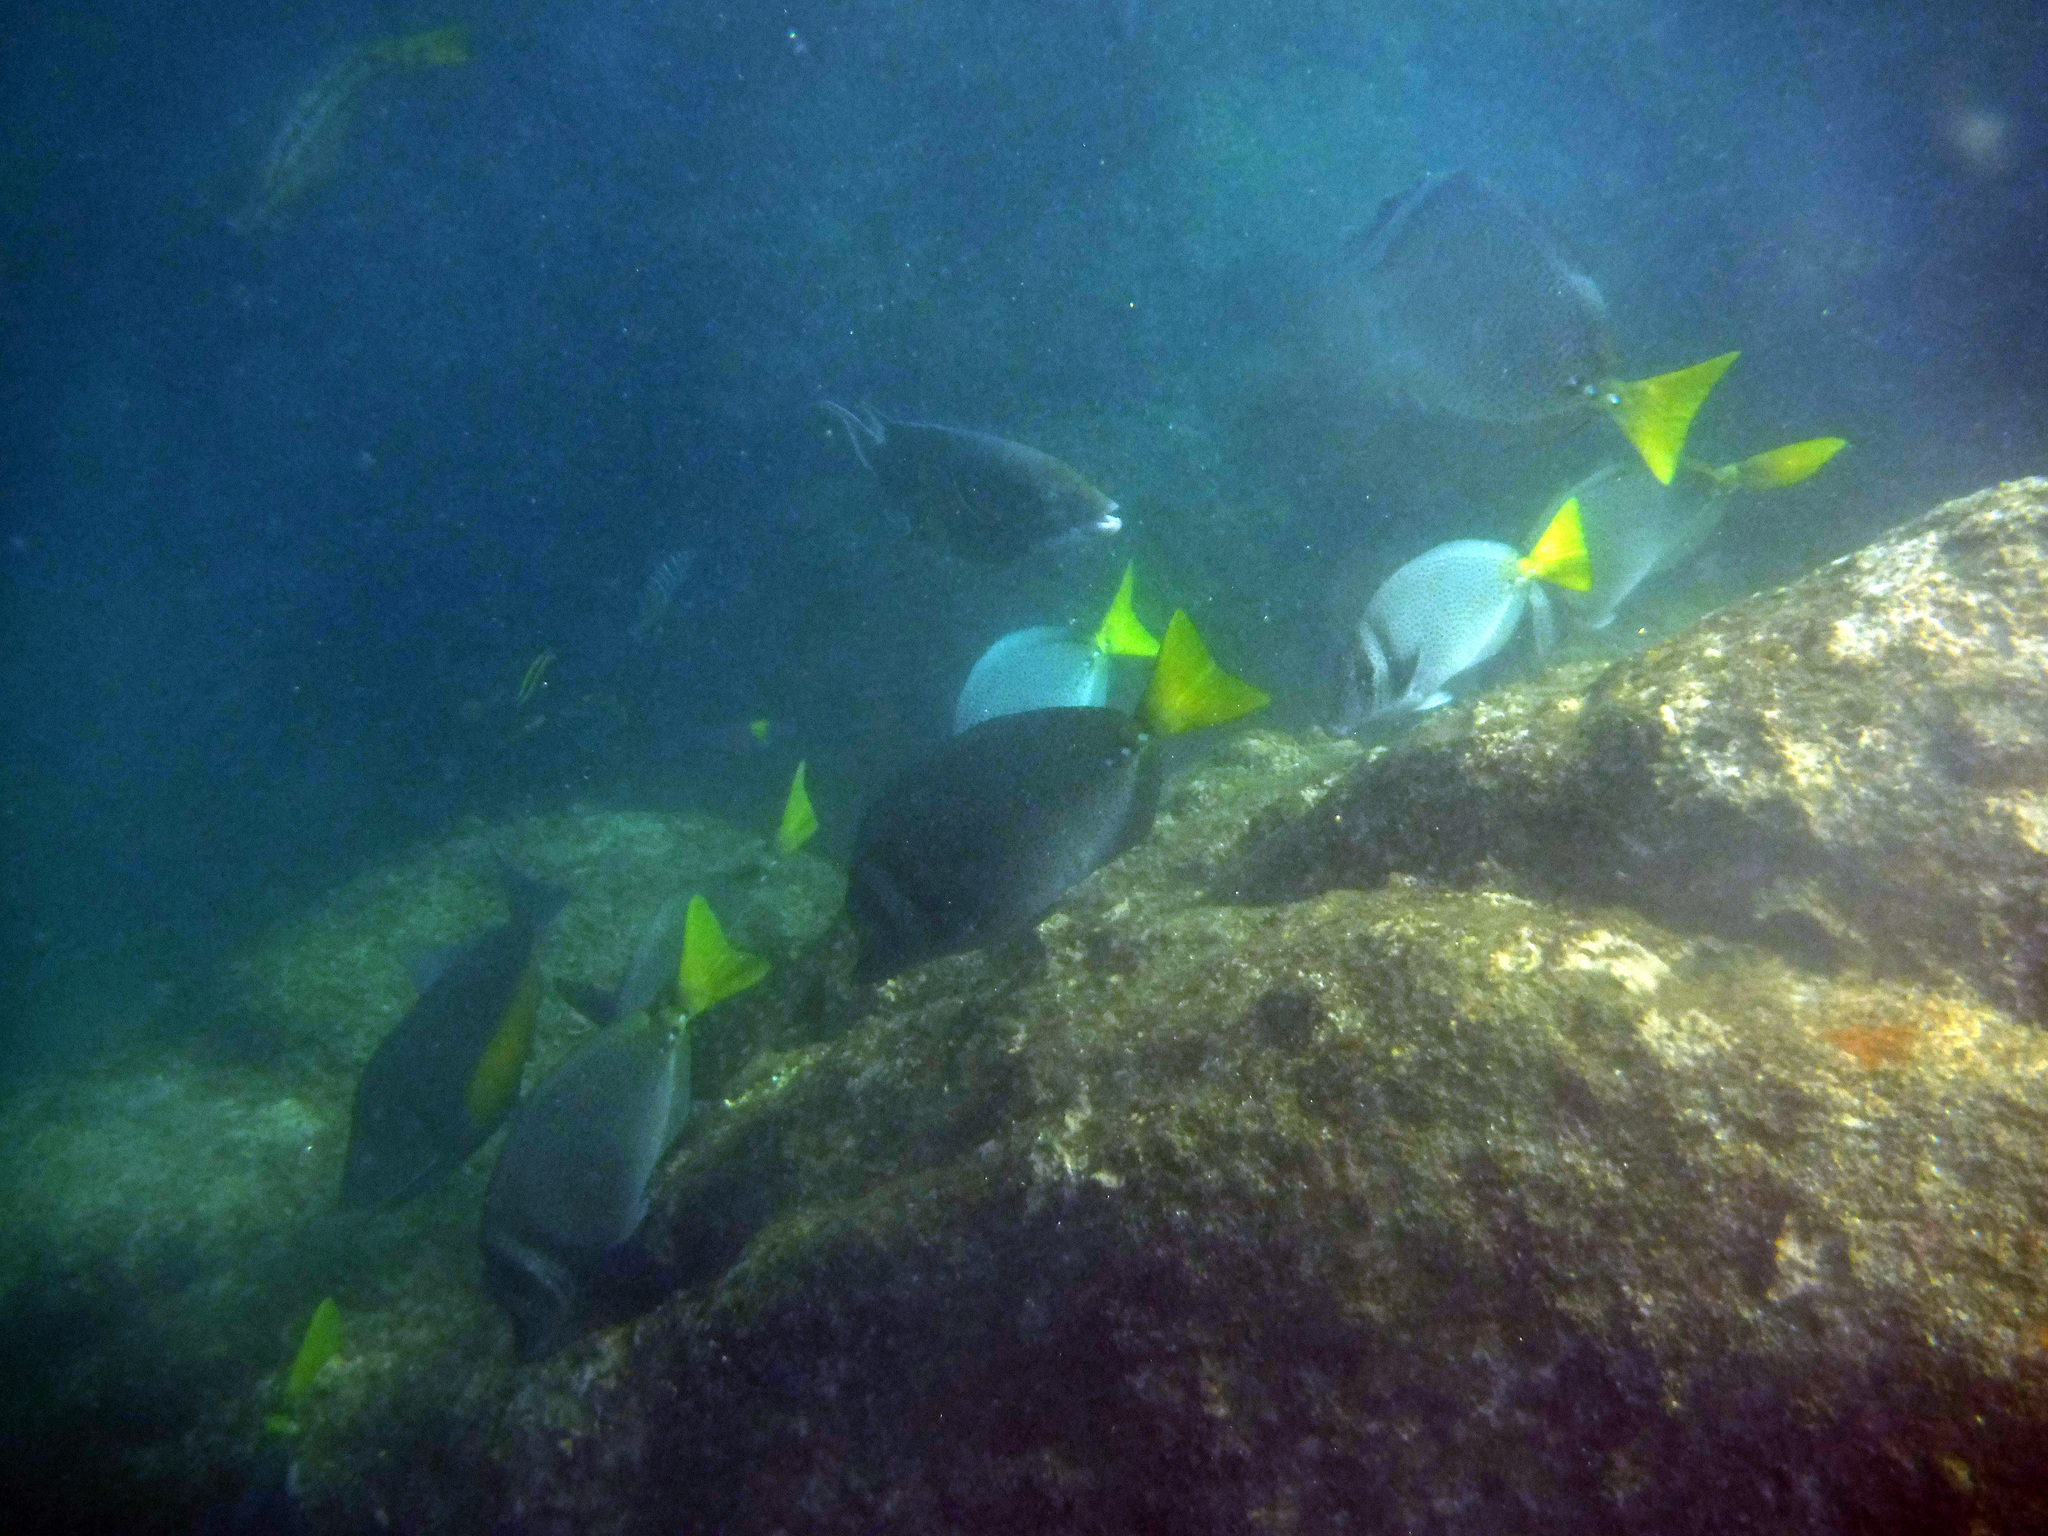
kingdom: Animalia
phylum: Chordata
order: Perciformes
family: Acanthuridae
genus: Prionurus
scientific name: Prionurus laticlavius
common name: Razor surgeonfish
